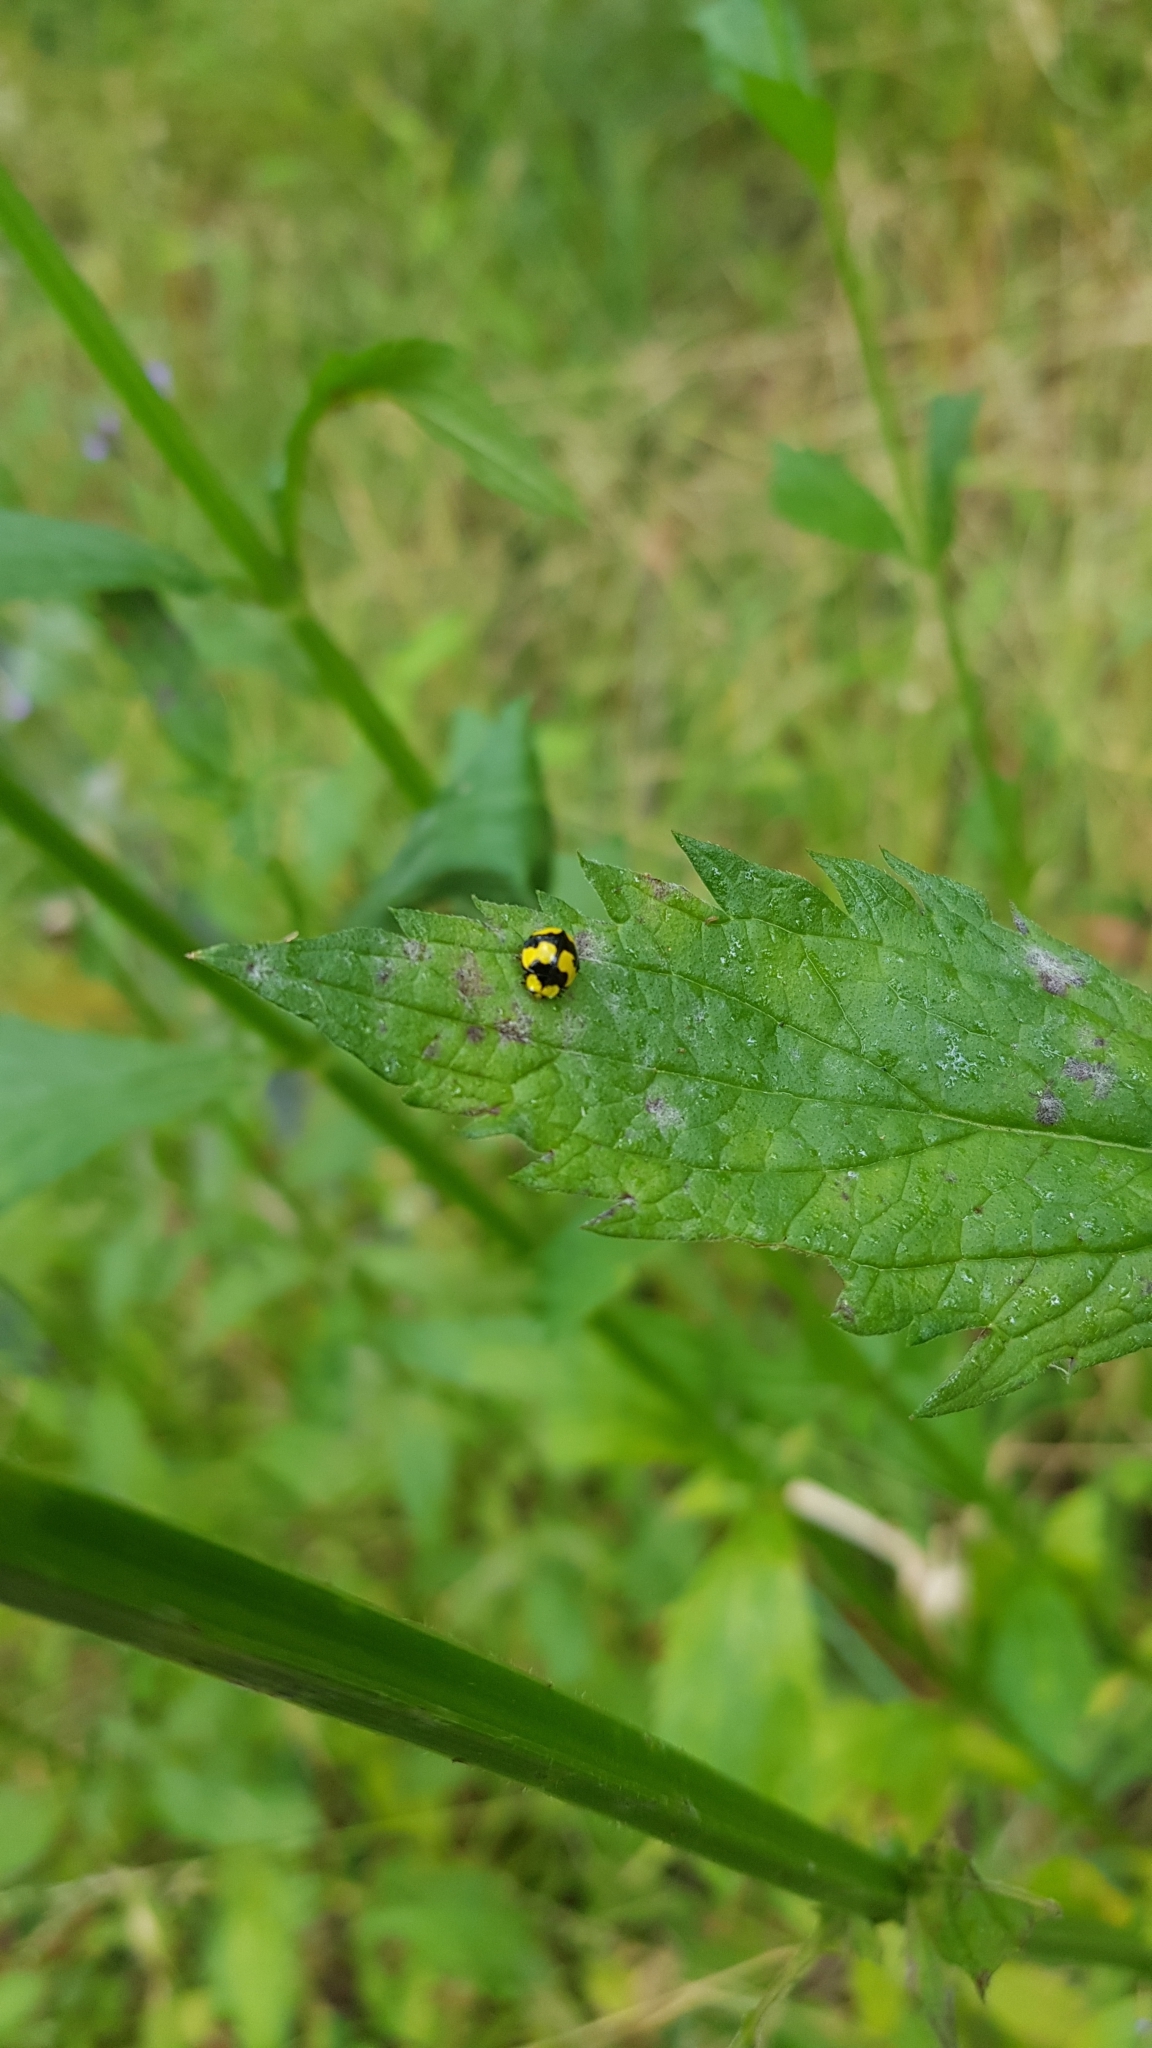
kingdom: Animalia
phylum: Arthropoda
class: Insecta
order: Coleoptera
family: Coccinellidae
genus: Illeis
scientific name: Illeis galbula
